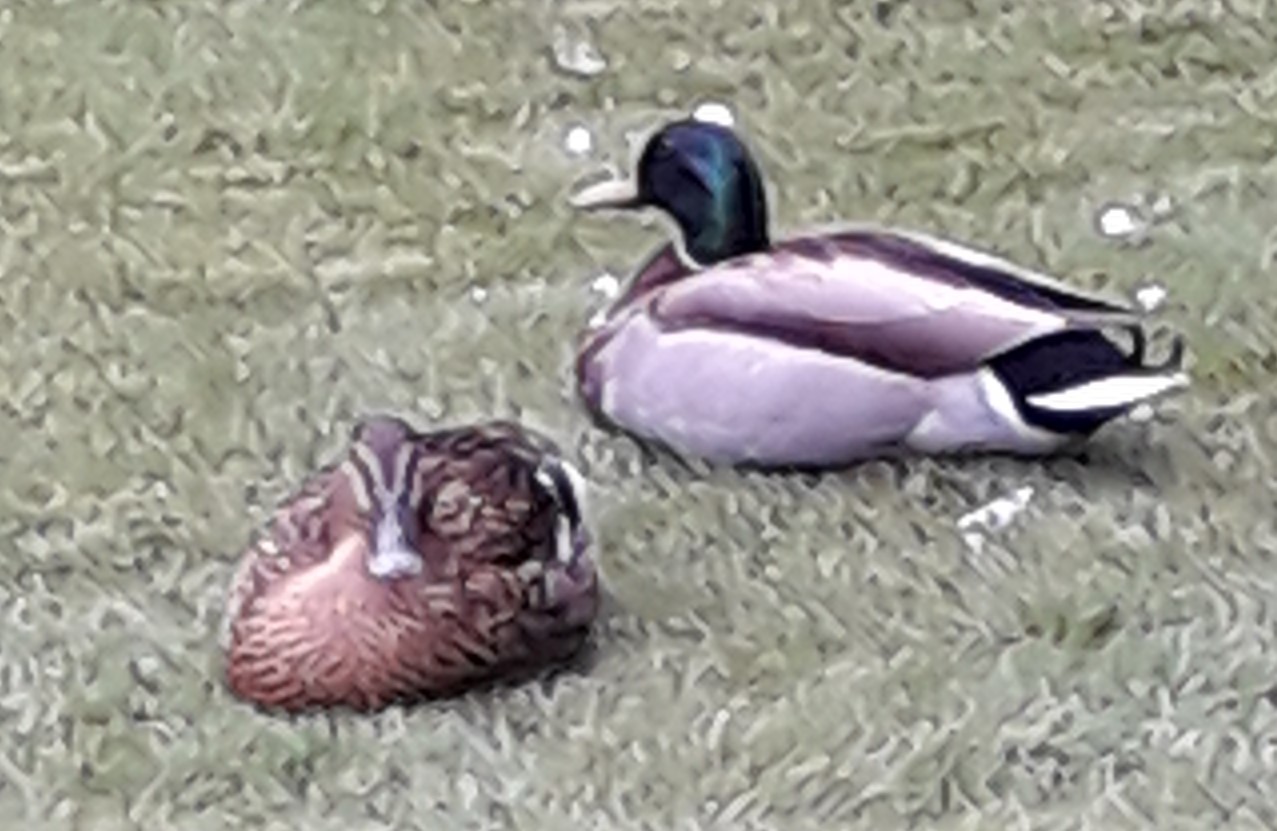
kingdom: Animalia
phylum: Chordata
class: Aves
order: Anseriformes
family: Anatidae
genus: Anas
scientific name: Anas platyrhynchos
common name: Mallard
